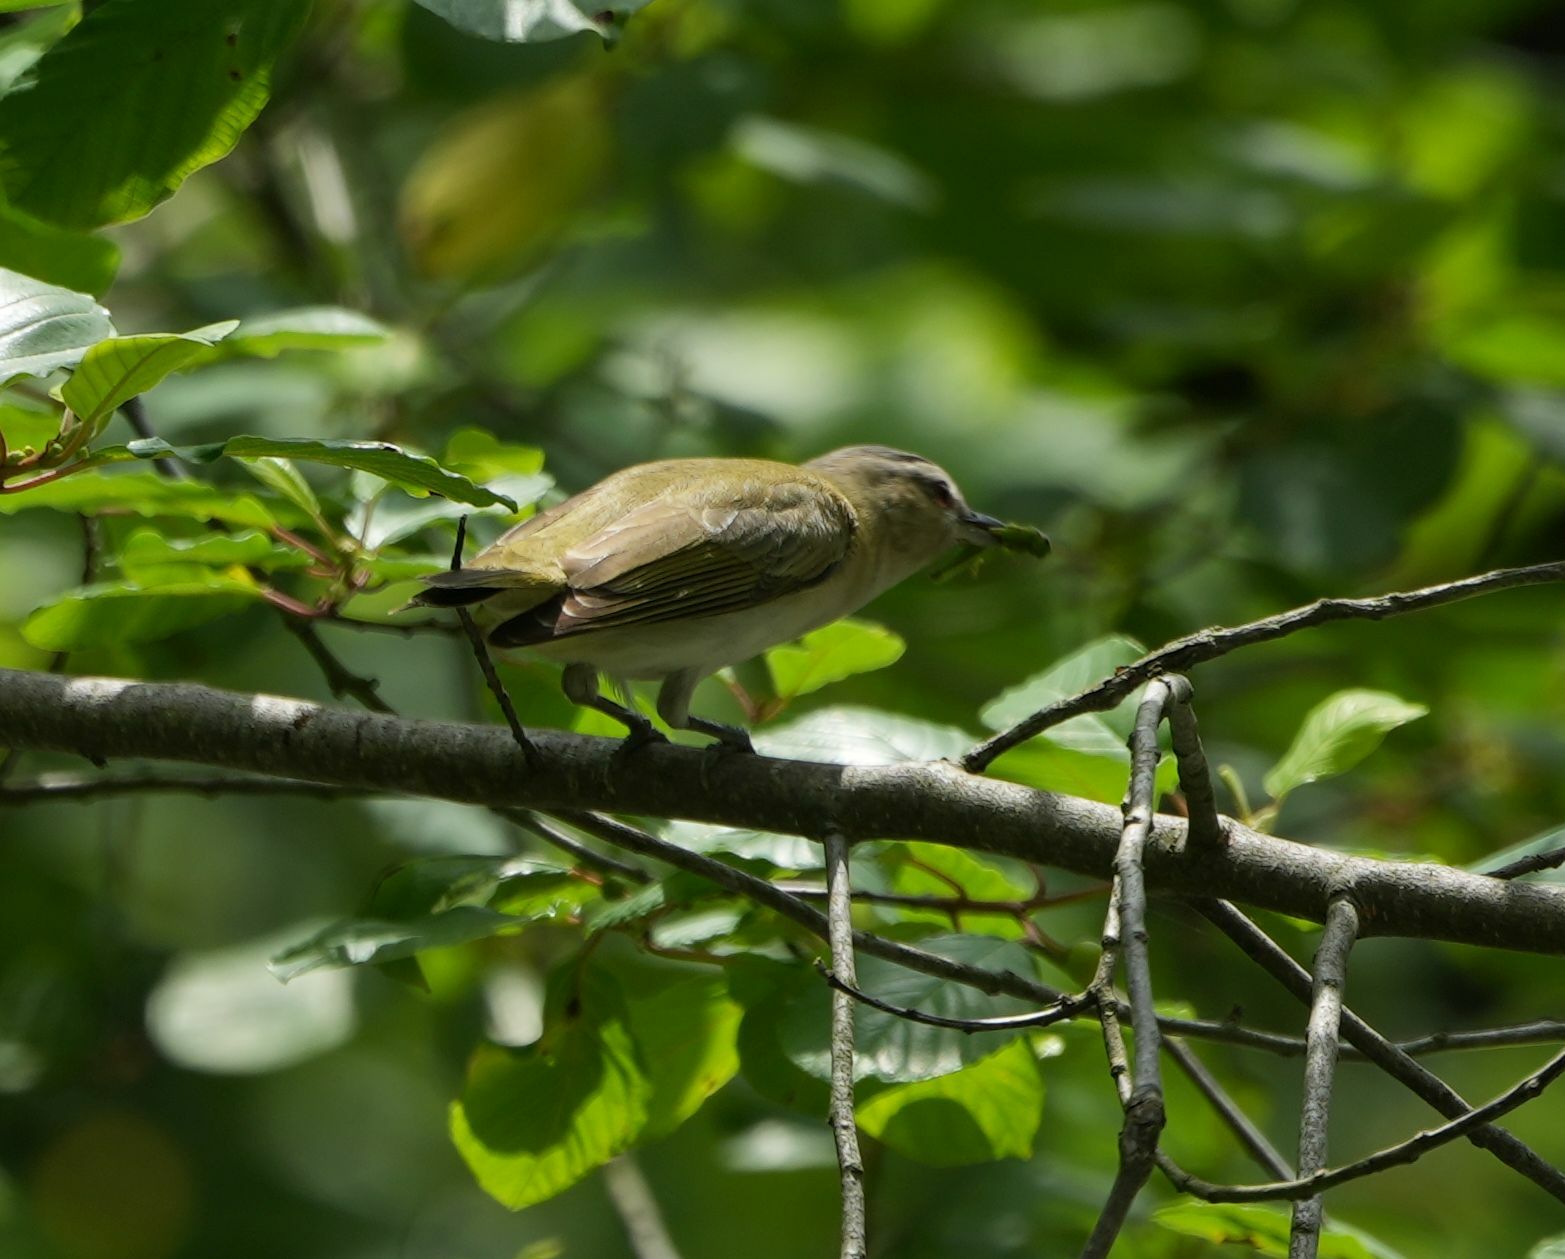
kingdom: Animalia
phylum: Chordata
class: Aves
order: Passeriformes
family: Vireonidae
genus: Vireo
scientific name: Vireo olivaceus
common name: Red-eyed vireo
